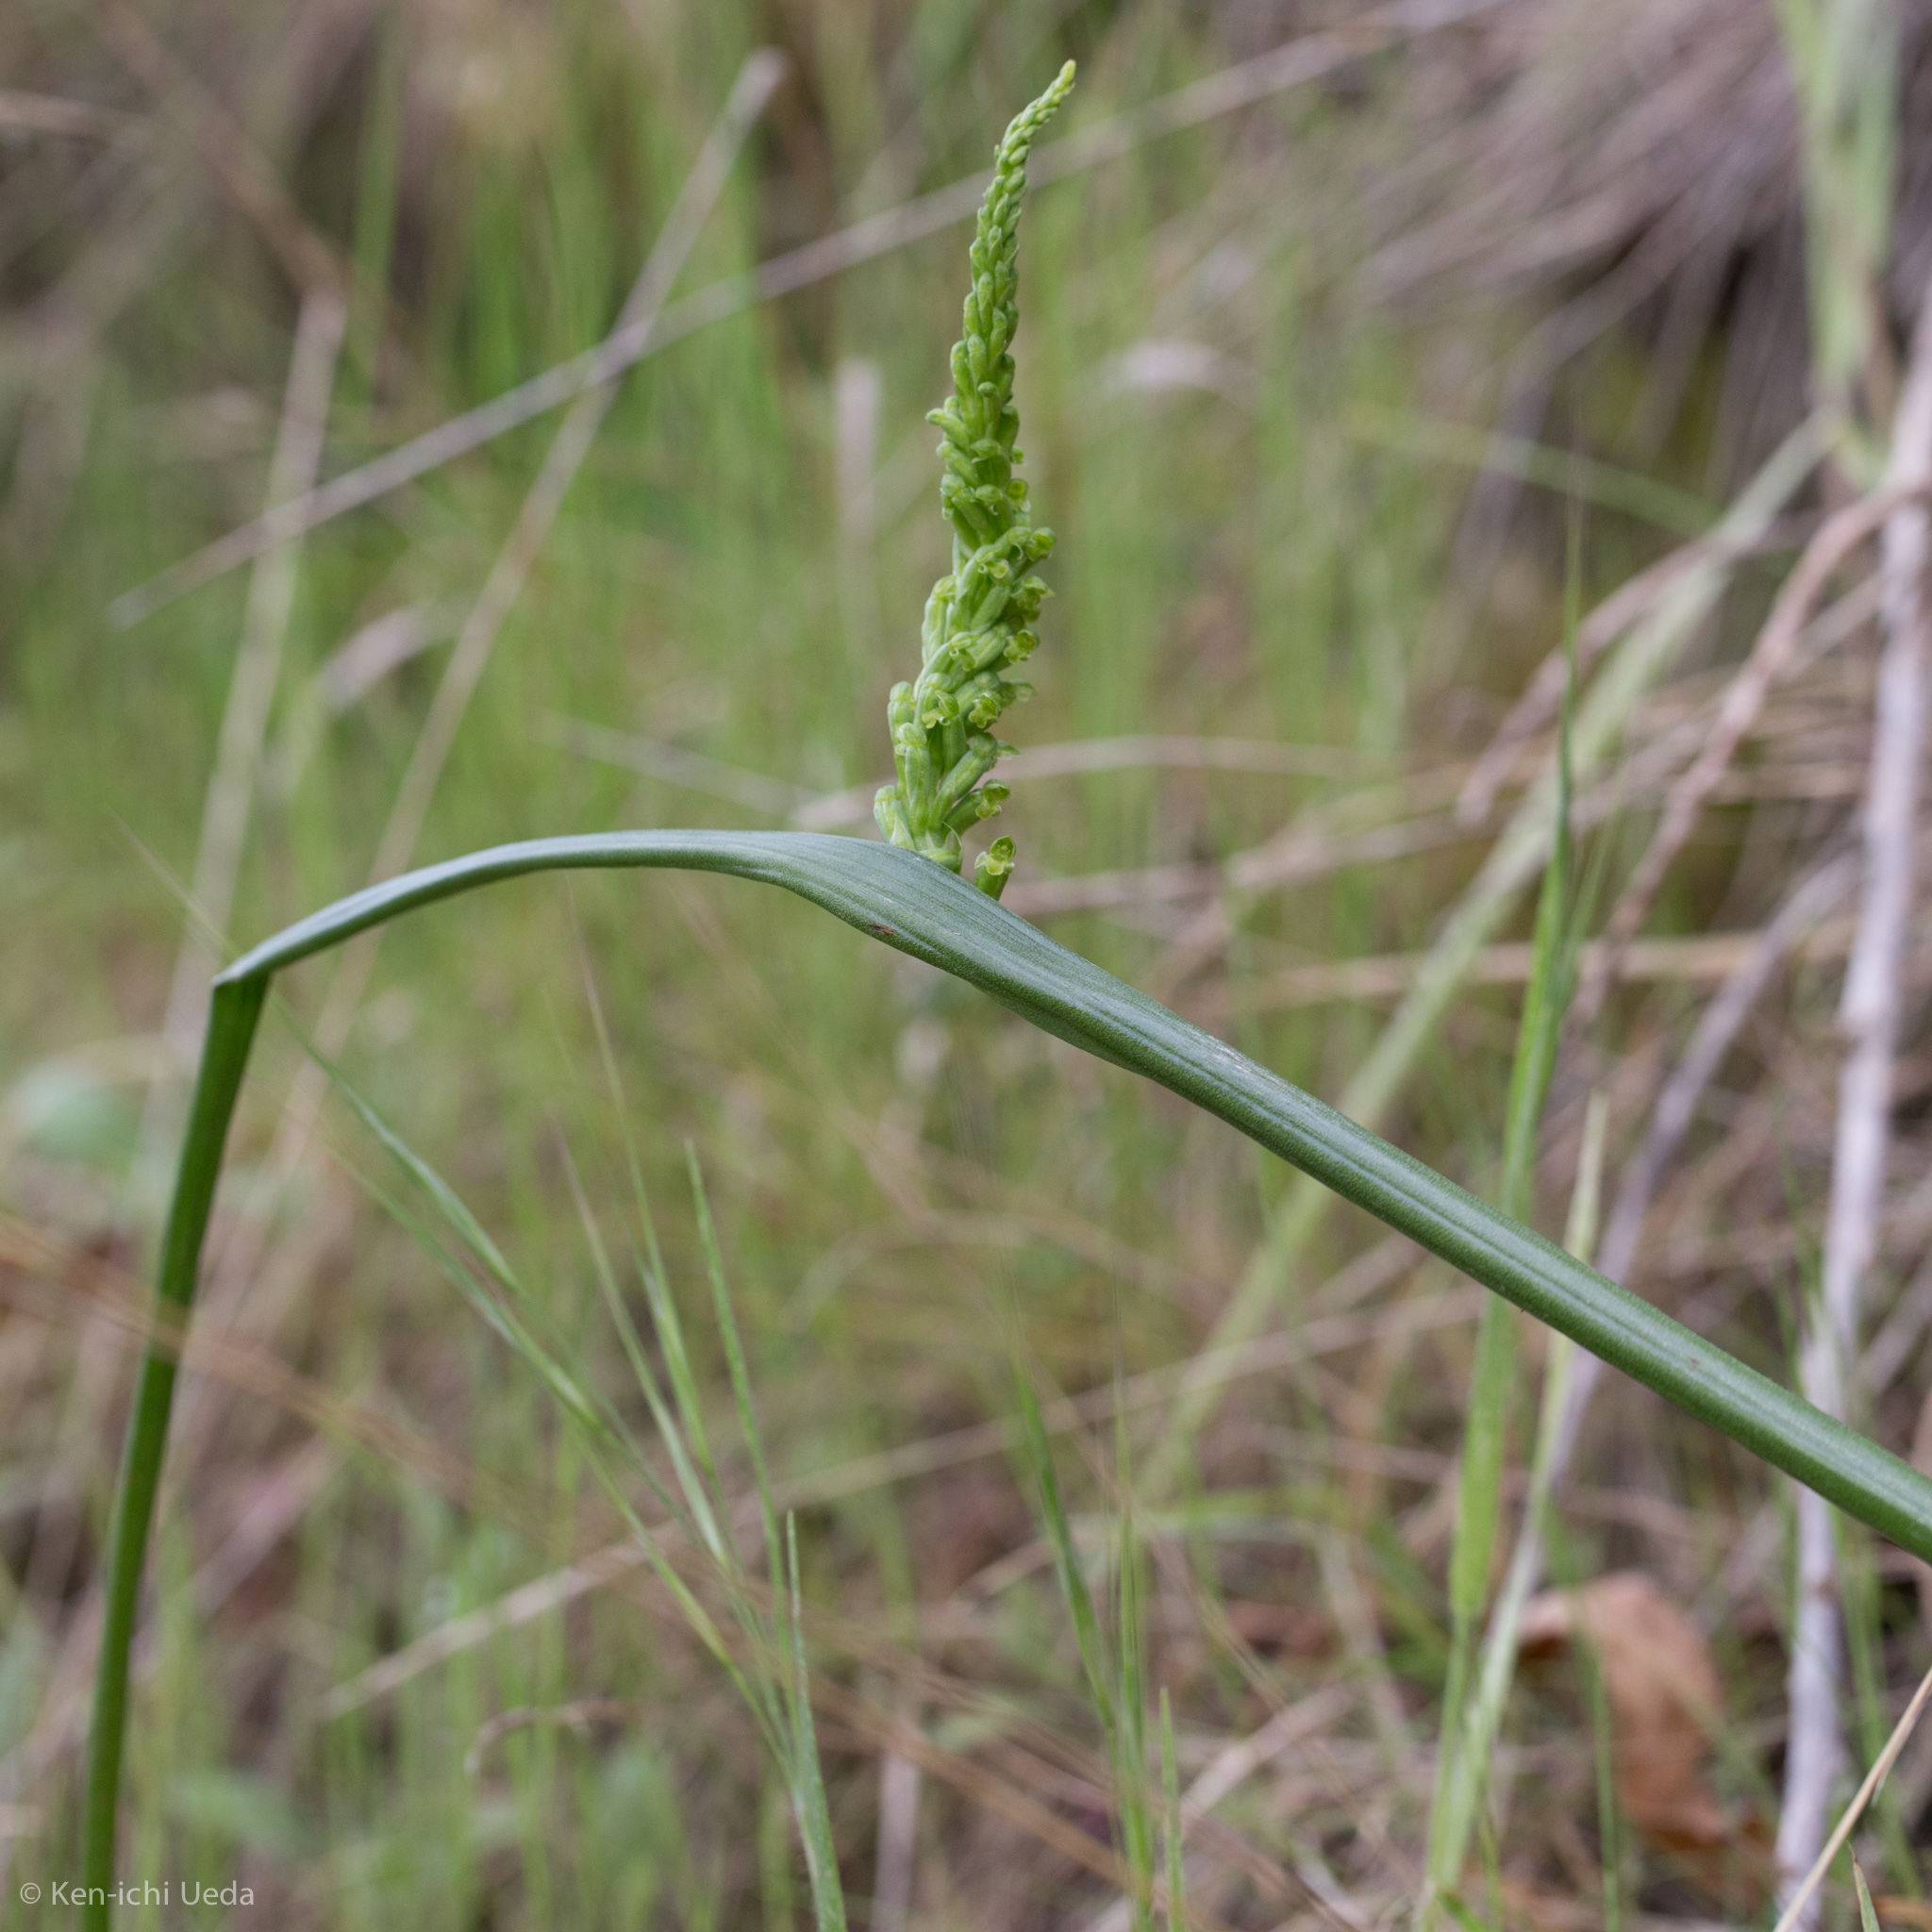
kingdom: Plantae
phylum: Tracheophyta
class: Liliopsida
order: Asparagales
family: Orchidaceae
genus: Microtis
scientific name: Microtis unifolia
